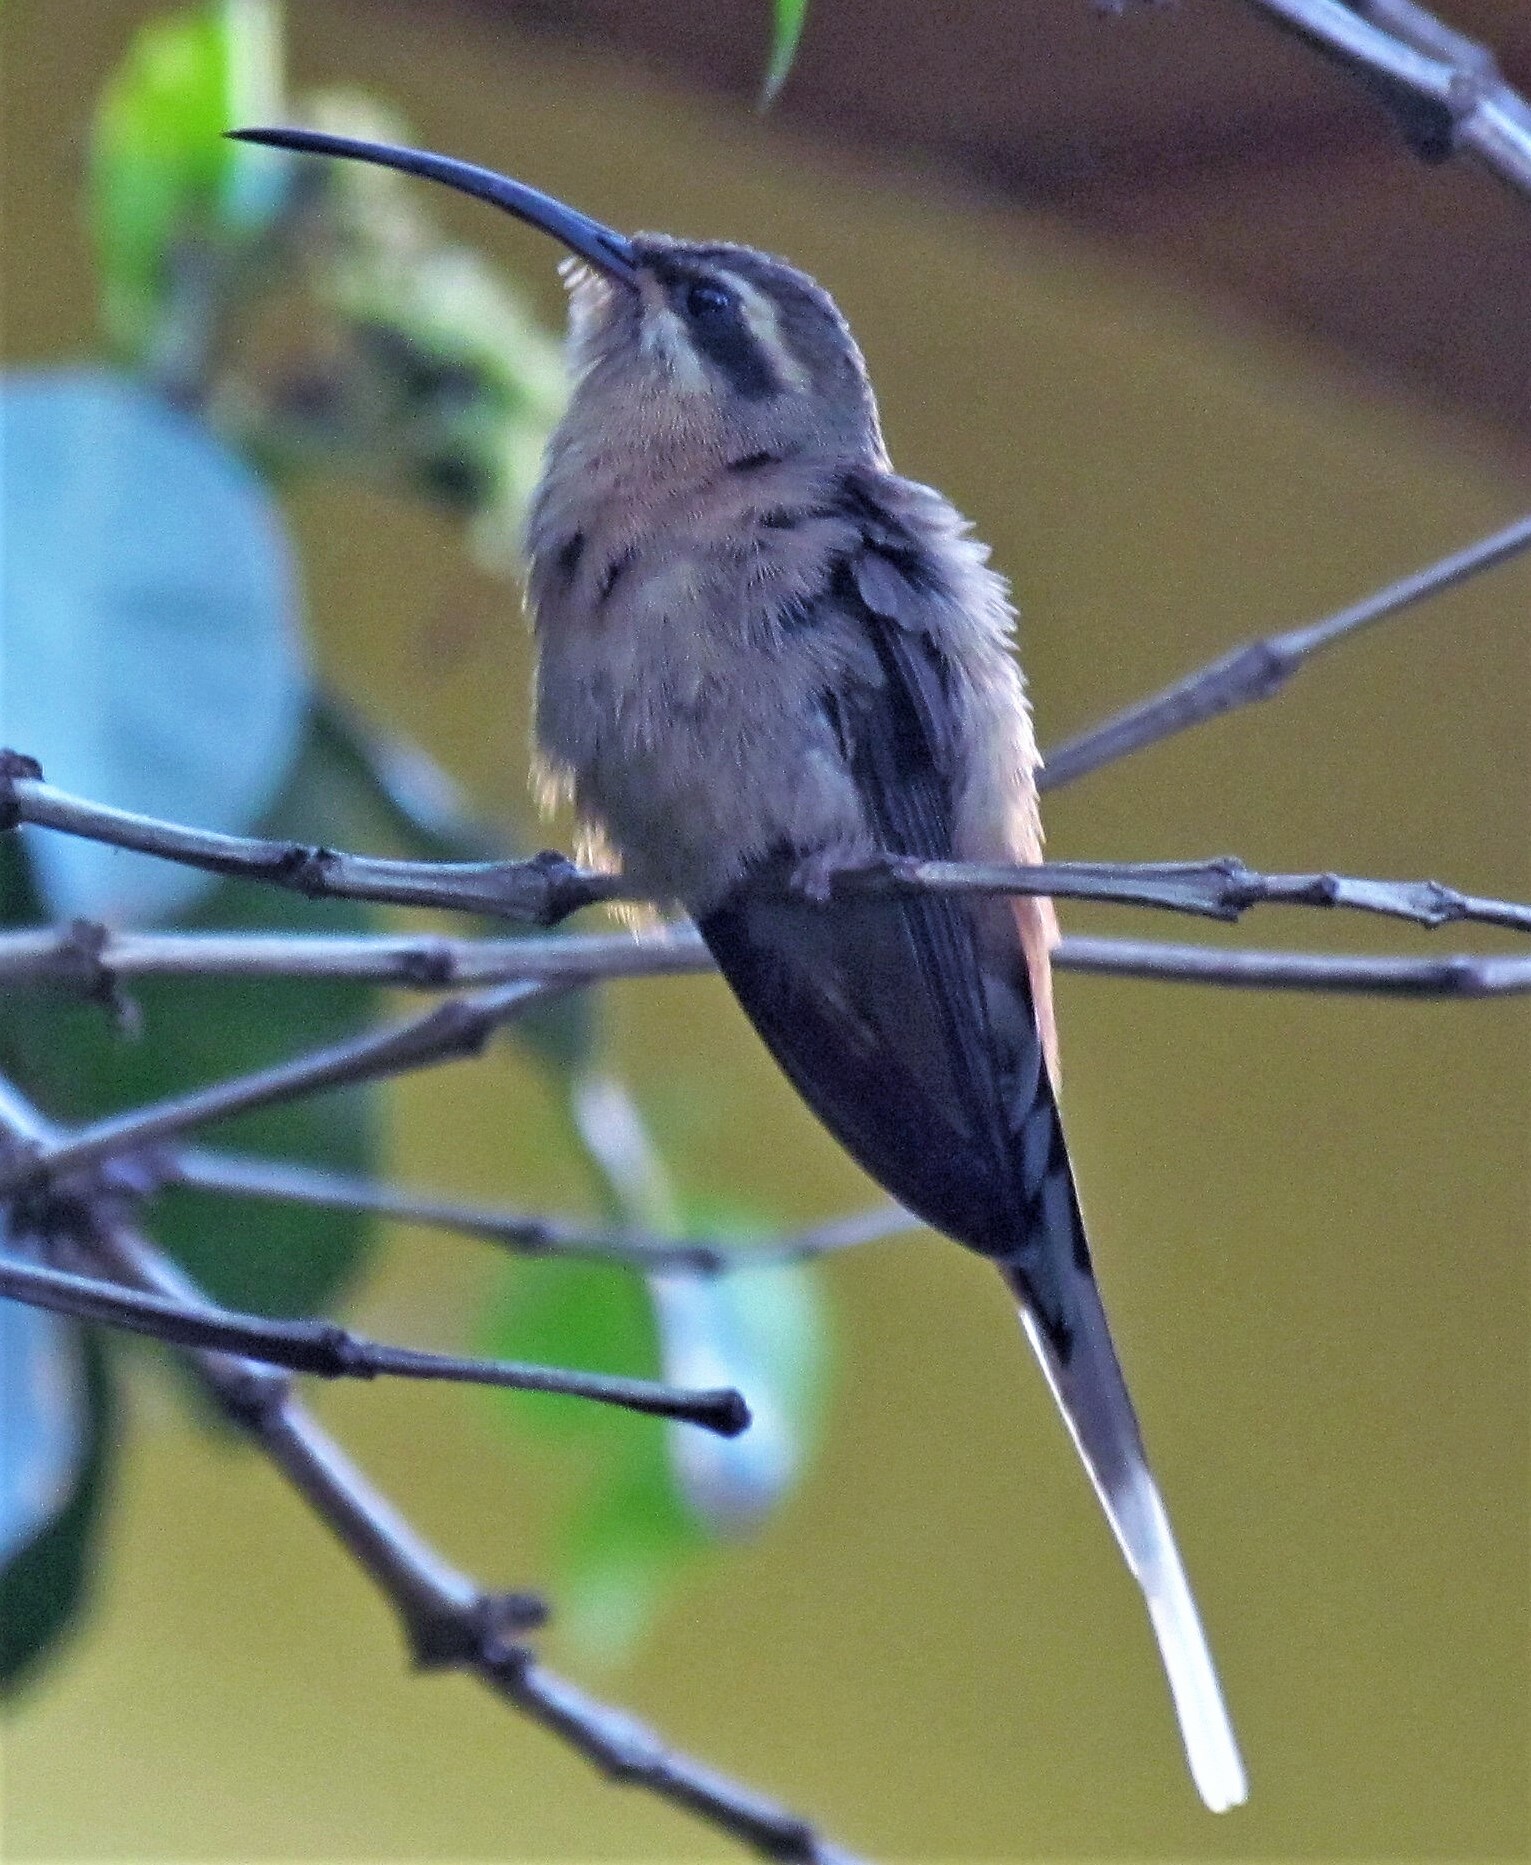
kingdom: Animalia
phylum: Chordata
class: Aves
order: Apodiformes
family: Trochilidae
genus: Phaethornis
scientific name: Phaethornis pretrei
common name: Planalto hermit
